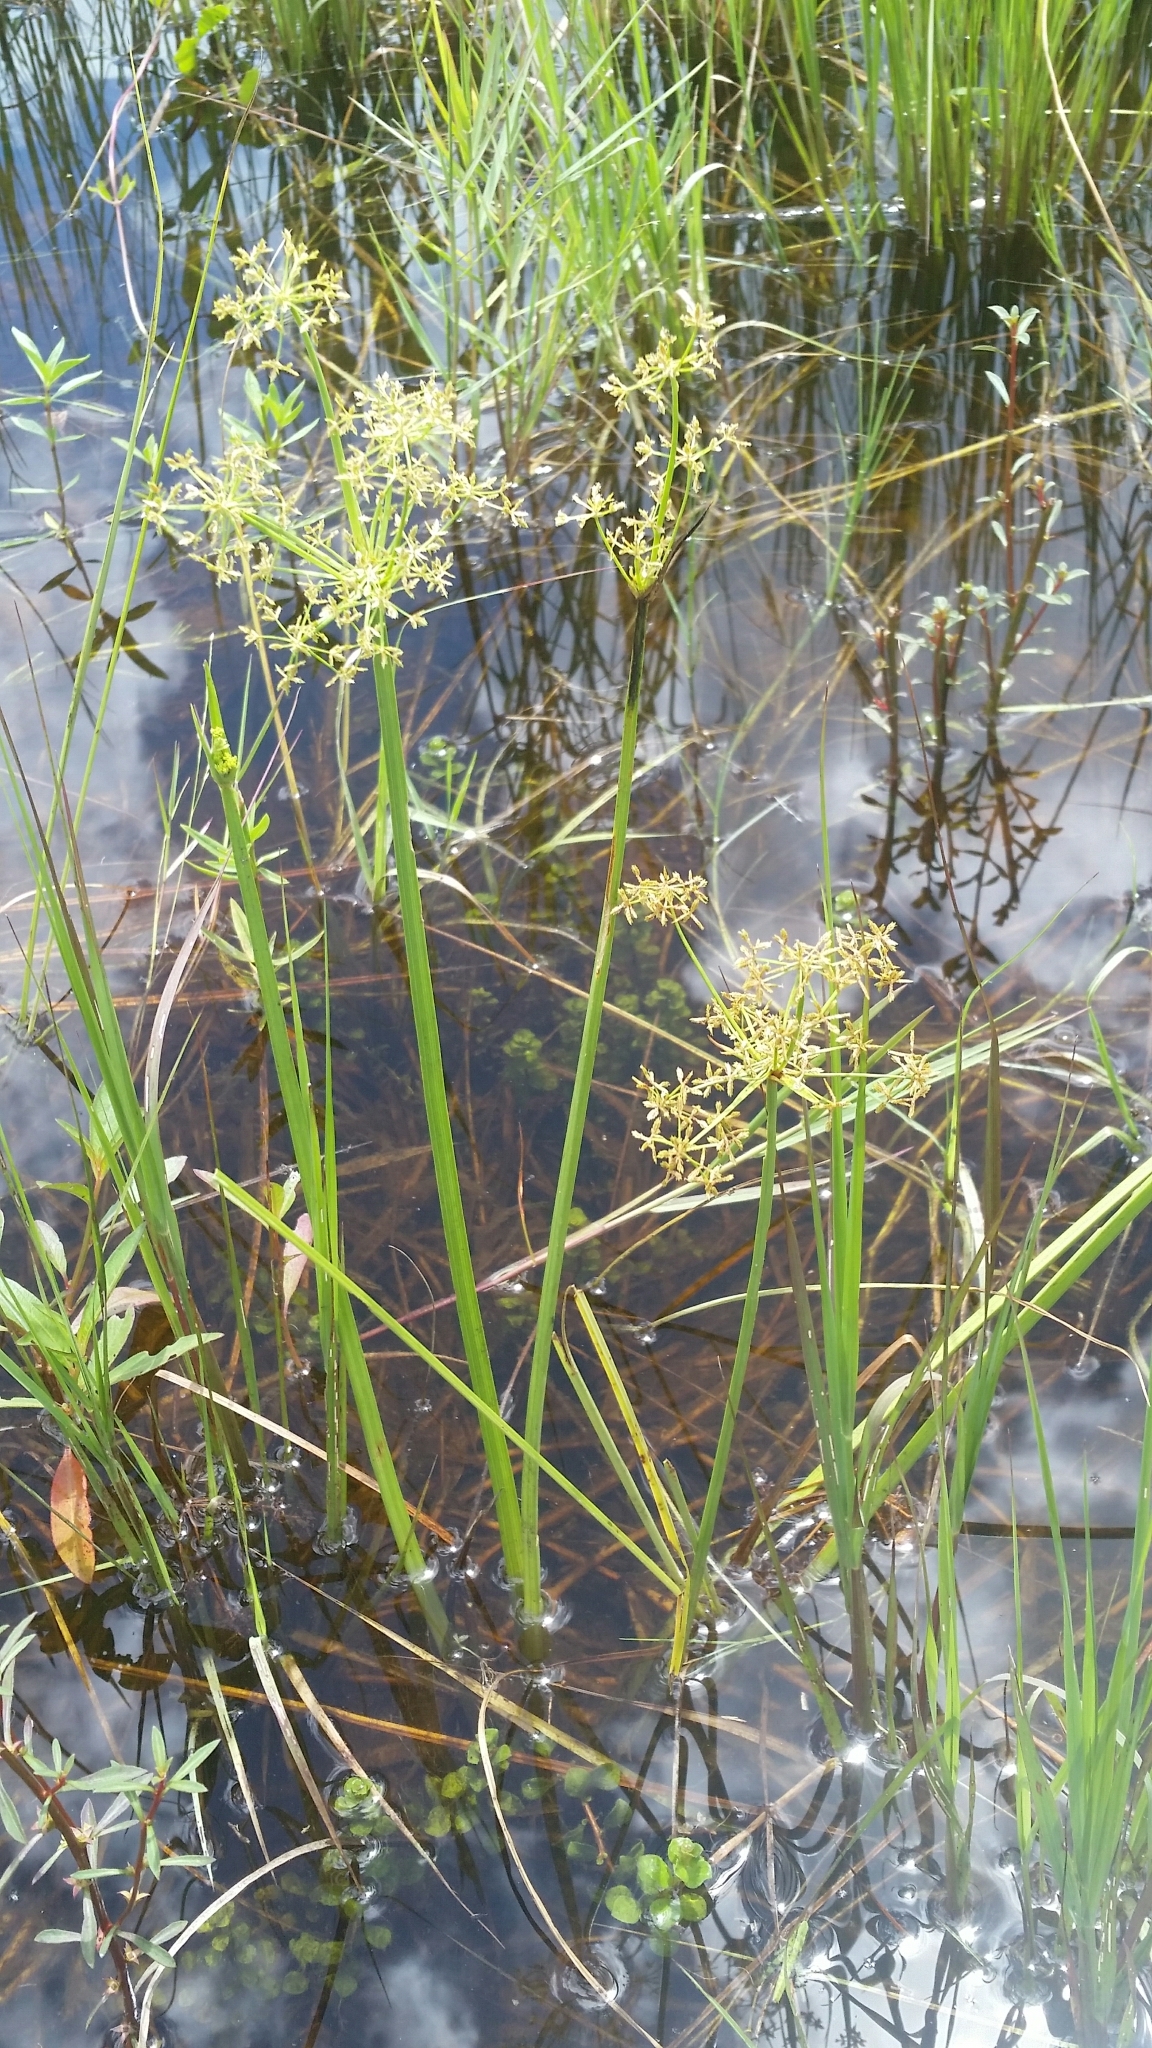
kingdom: Plantae
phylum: Tracheophyta
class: Liliopsida
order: Poales
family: Cyperaceae
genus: Cyperus
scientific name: Cyperus haspan
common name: Haspan flatsedge
